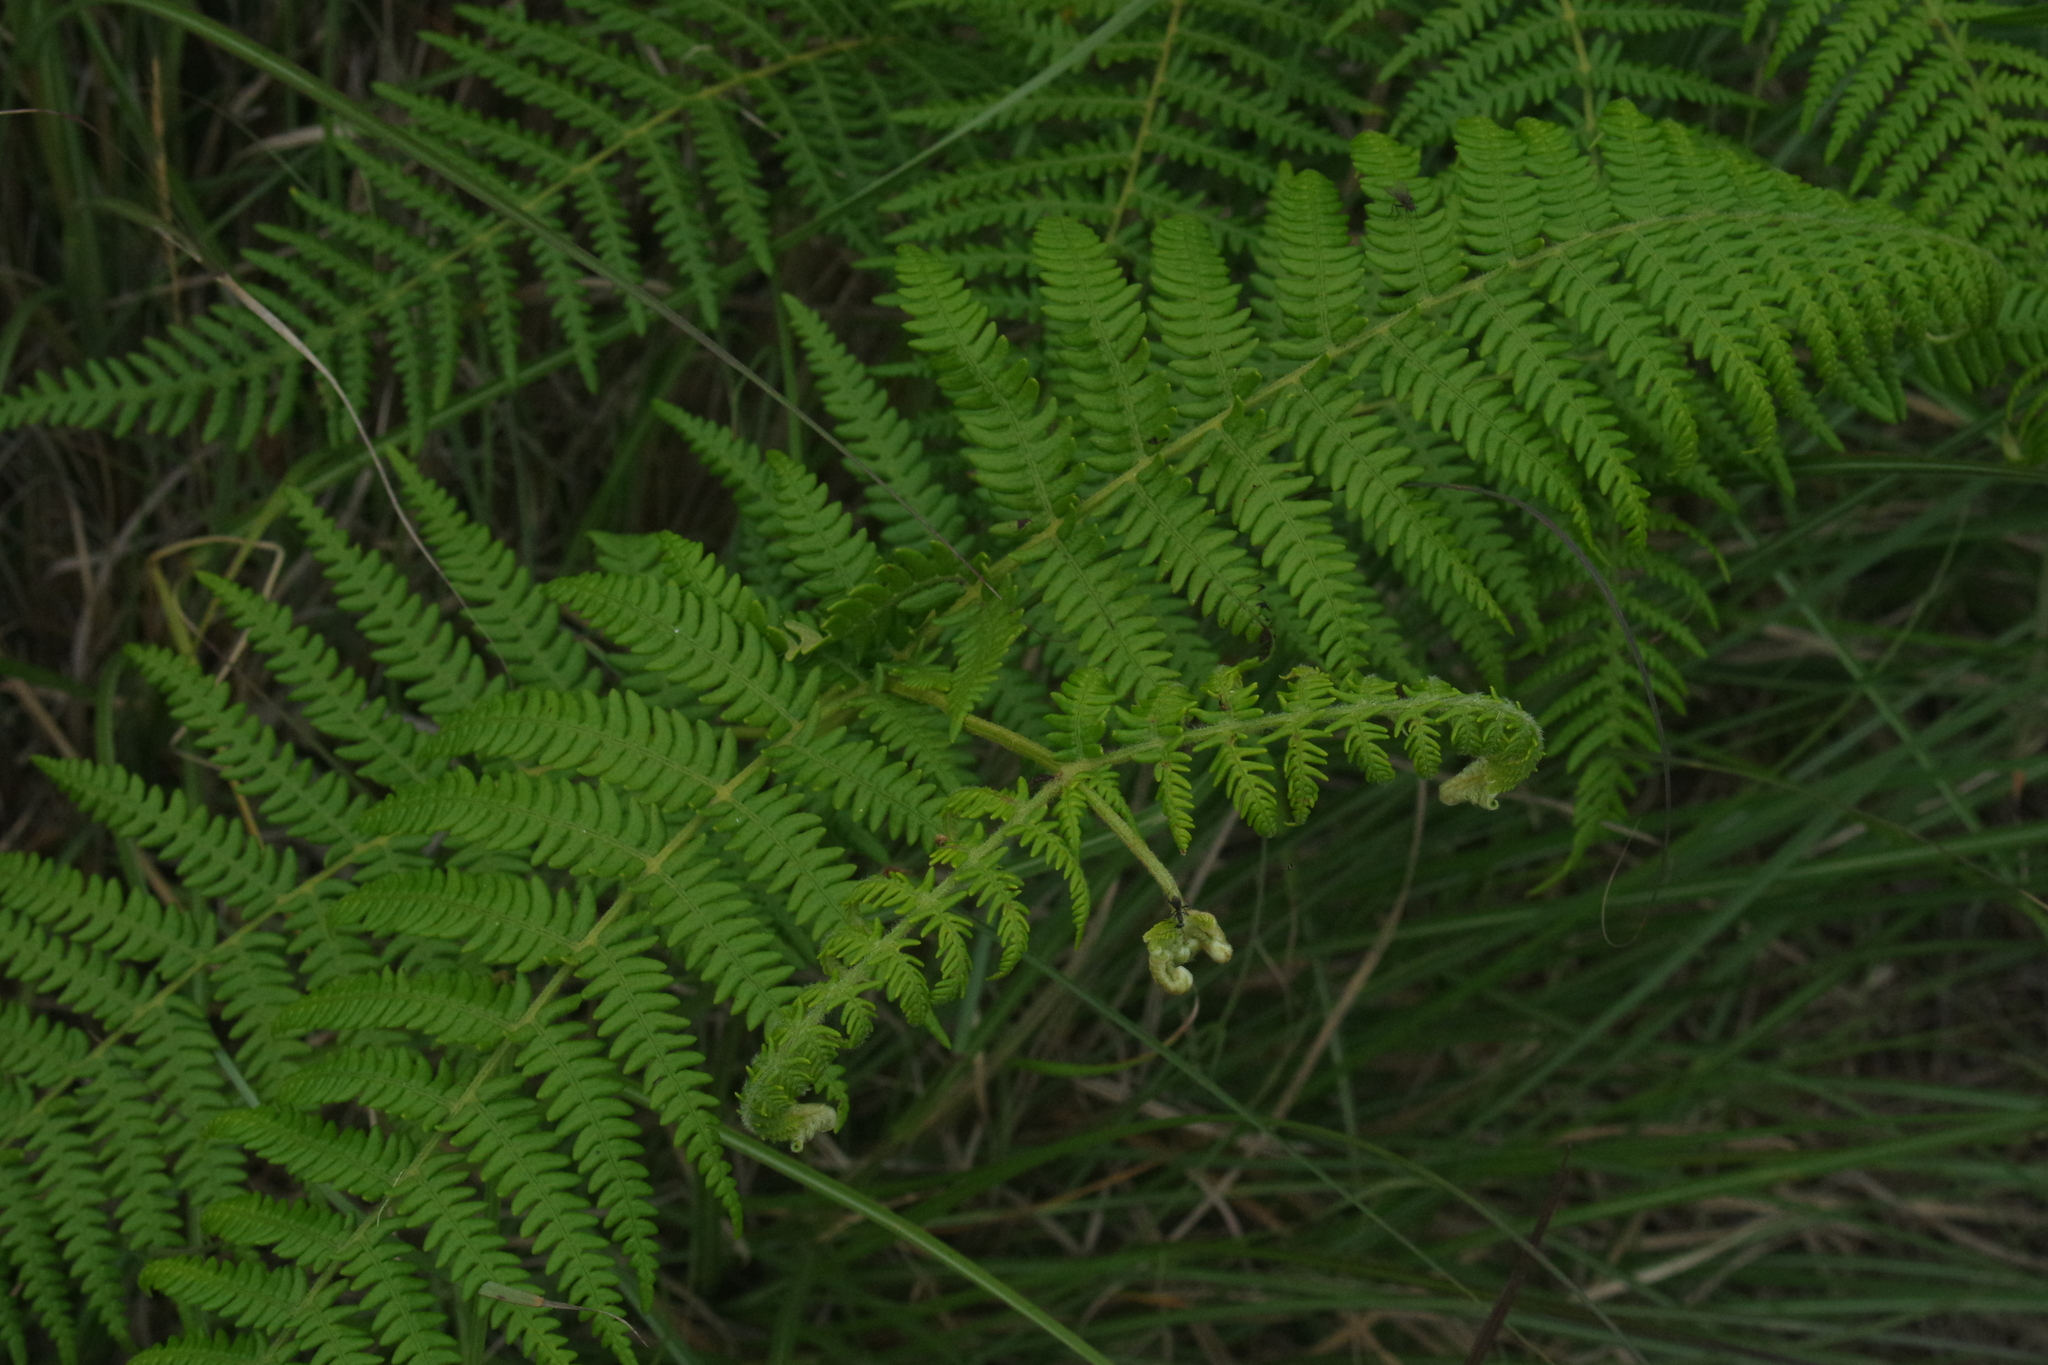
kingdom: Plantae
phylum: Tracheophyta
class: Polypodiopsida
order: Polypodiales
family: Dennstaedtiaceae
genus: Pteridium
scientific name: Pteridium aquilinum
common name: Bracken
